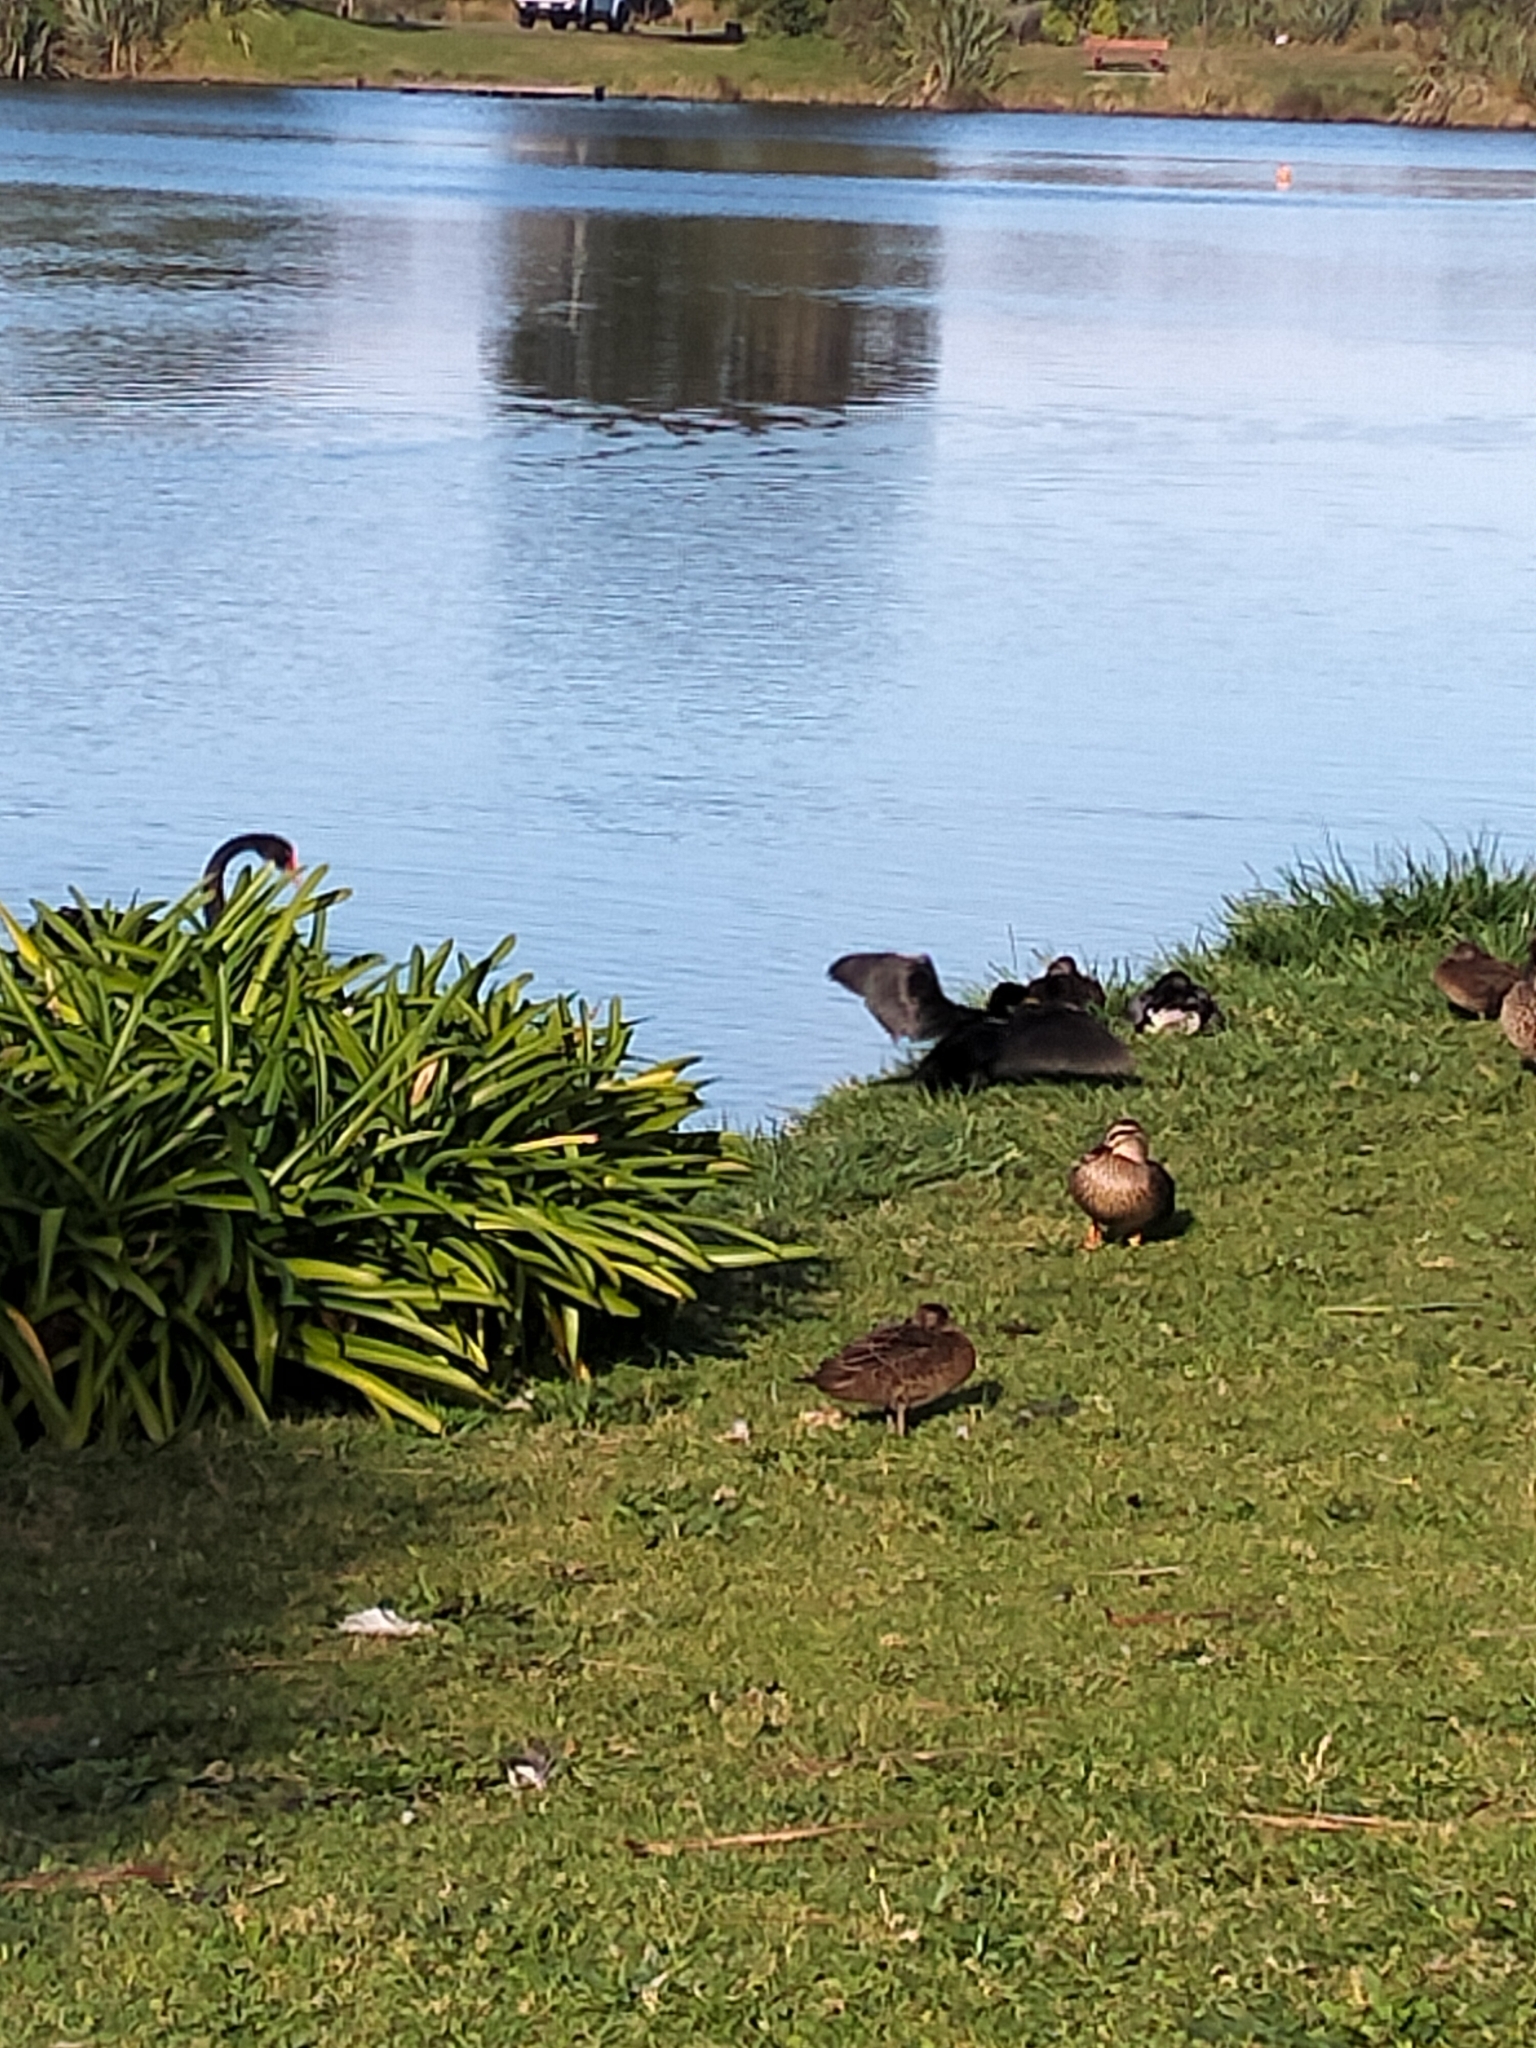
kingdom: Animalia
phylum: Chordata
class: Aves
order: Suliformes
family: Phalacrocoracidae
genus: Microcarbo
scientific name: Microcarbo melanoleucos
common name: Little pied cormorant
